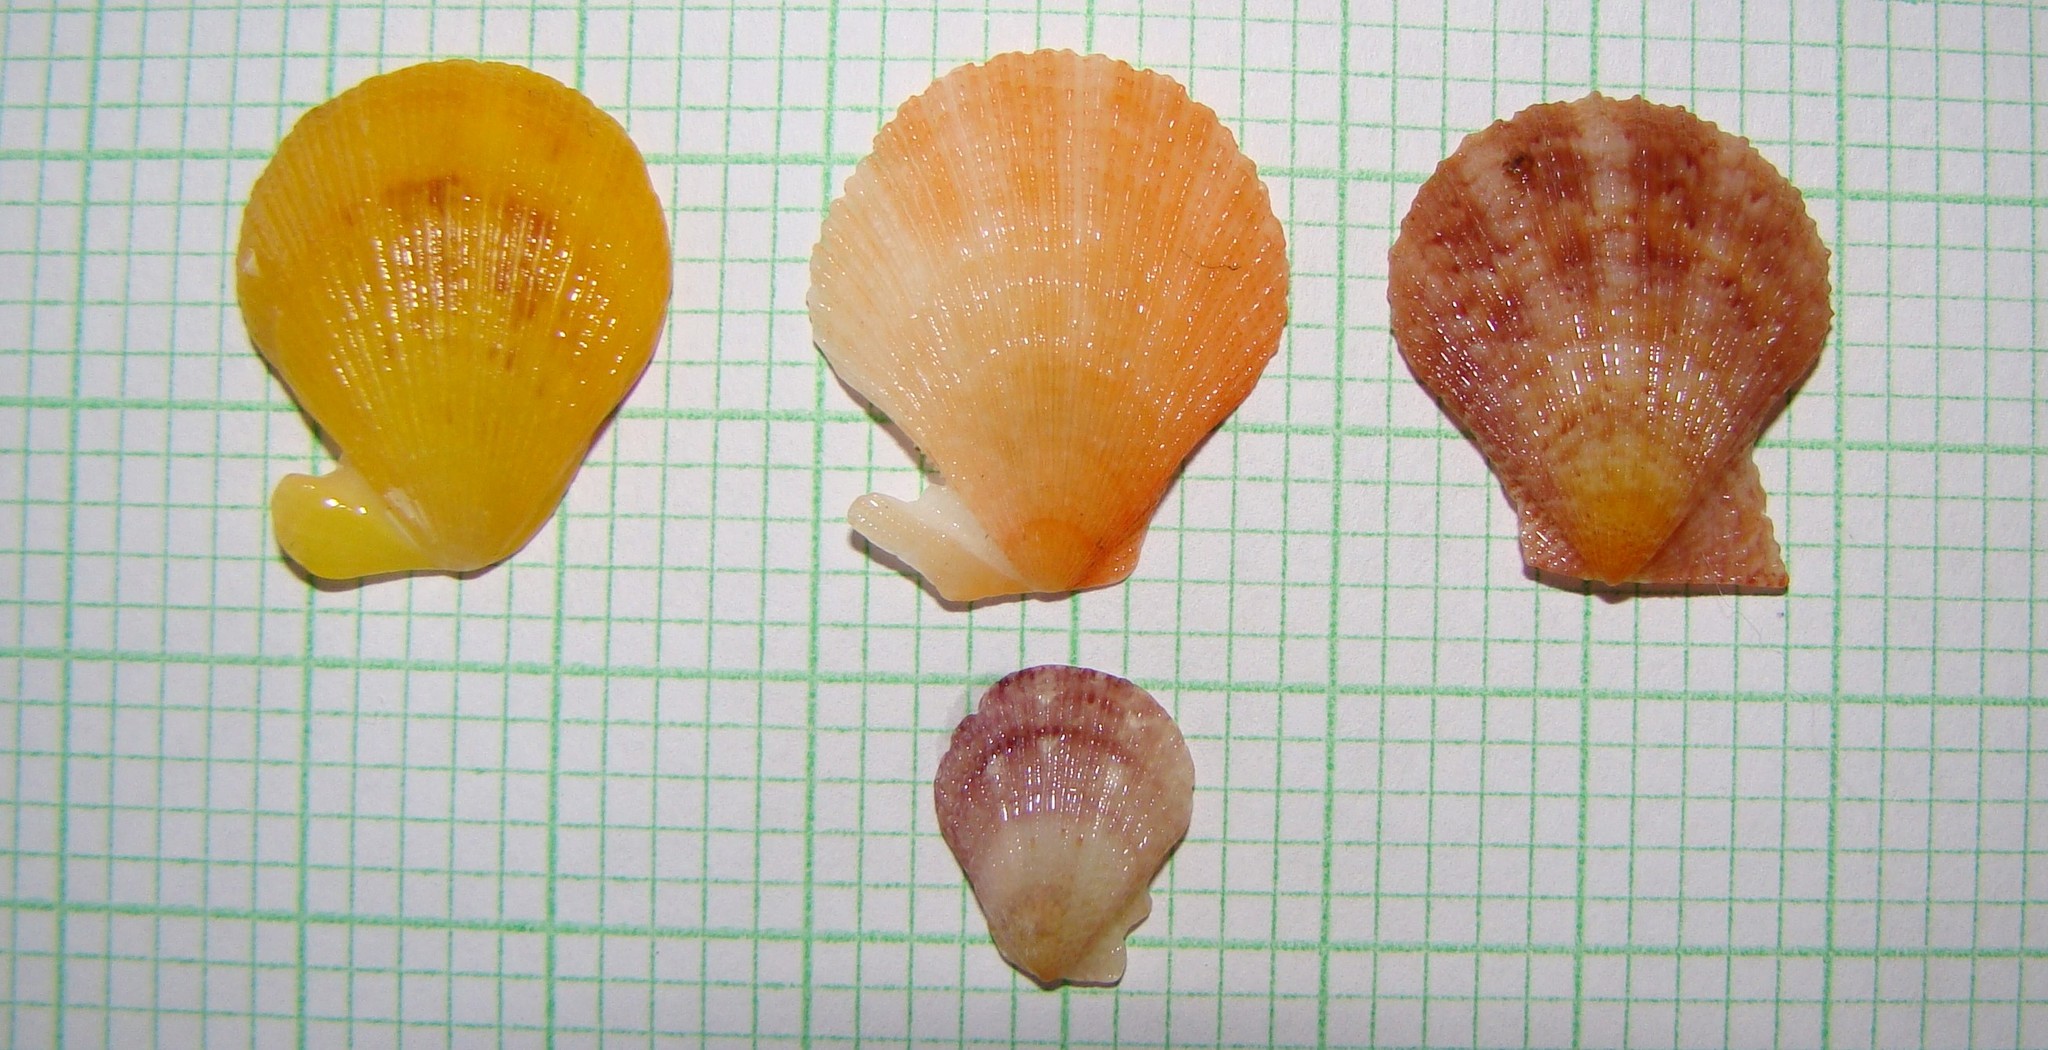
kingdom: Animalia
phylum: Mollusca
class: Bivalvia
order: Pectinida
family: Pectinidae
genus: Talochlamys
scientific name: Talochlamys zelandiae
